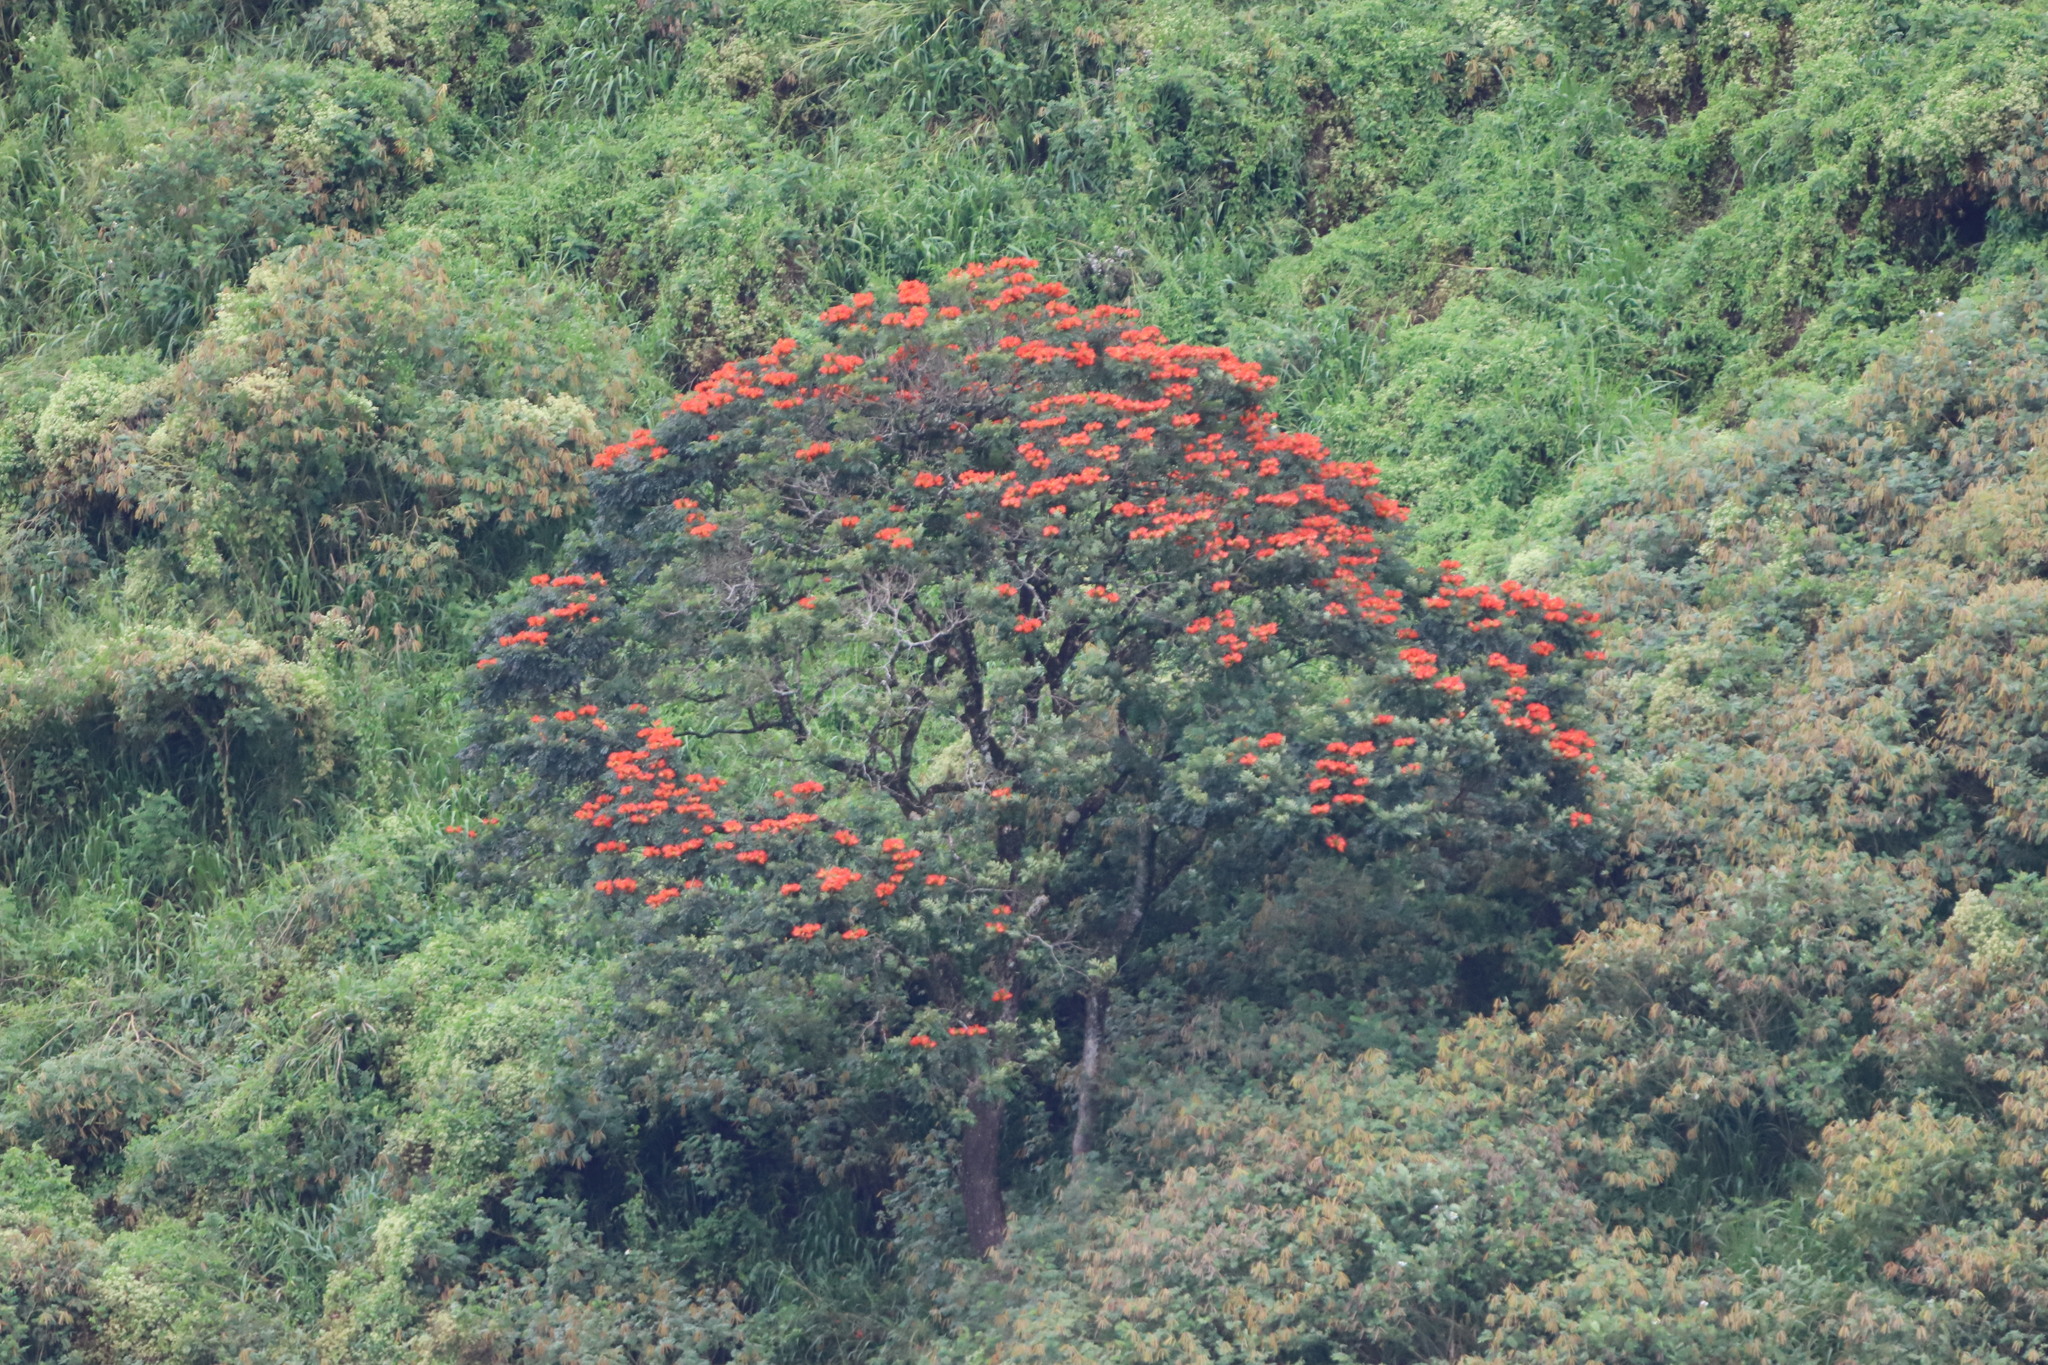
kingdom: Plantae
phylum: Tracheophyta
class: Magnoliopsida
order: Lamiales
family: Bignoniaceae
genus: Spathodea
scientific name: Spathodea campanulata
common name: African tuliptree
